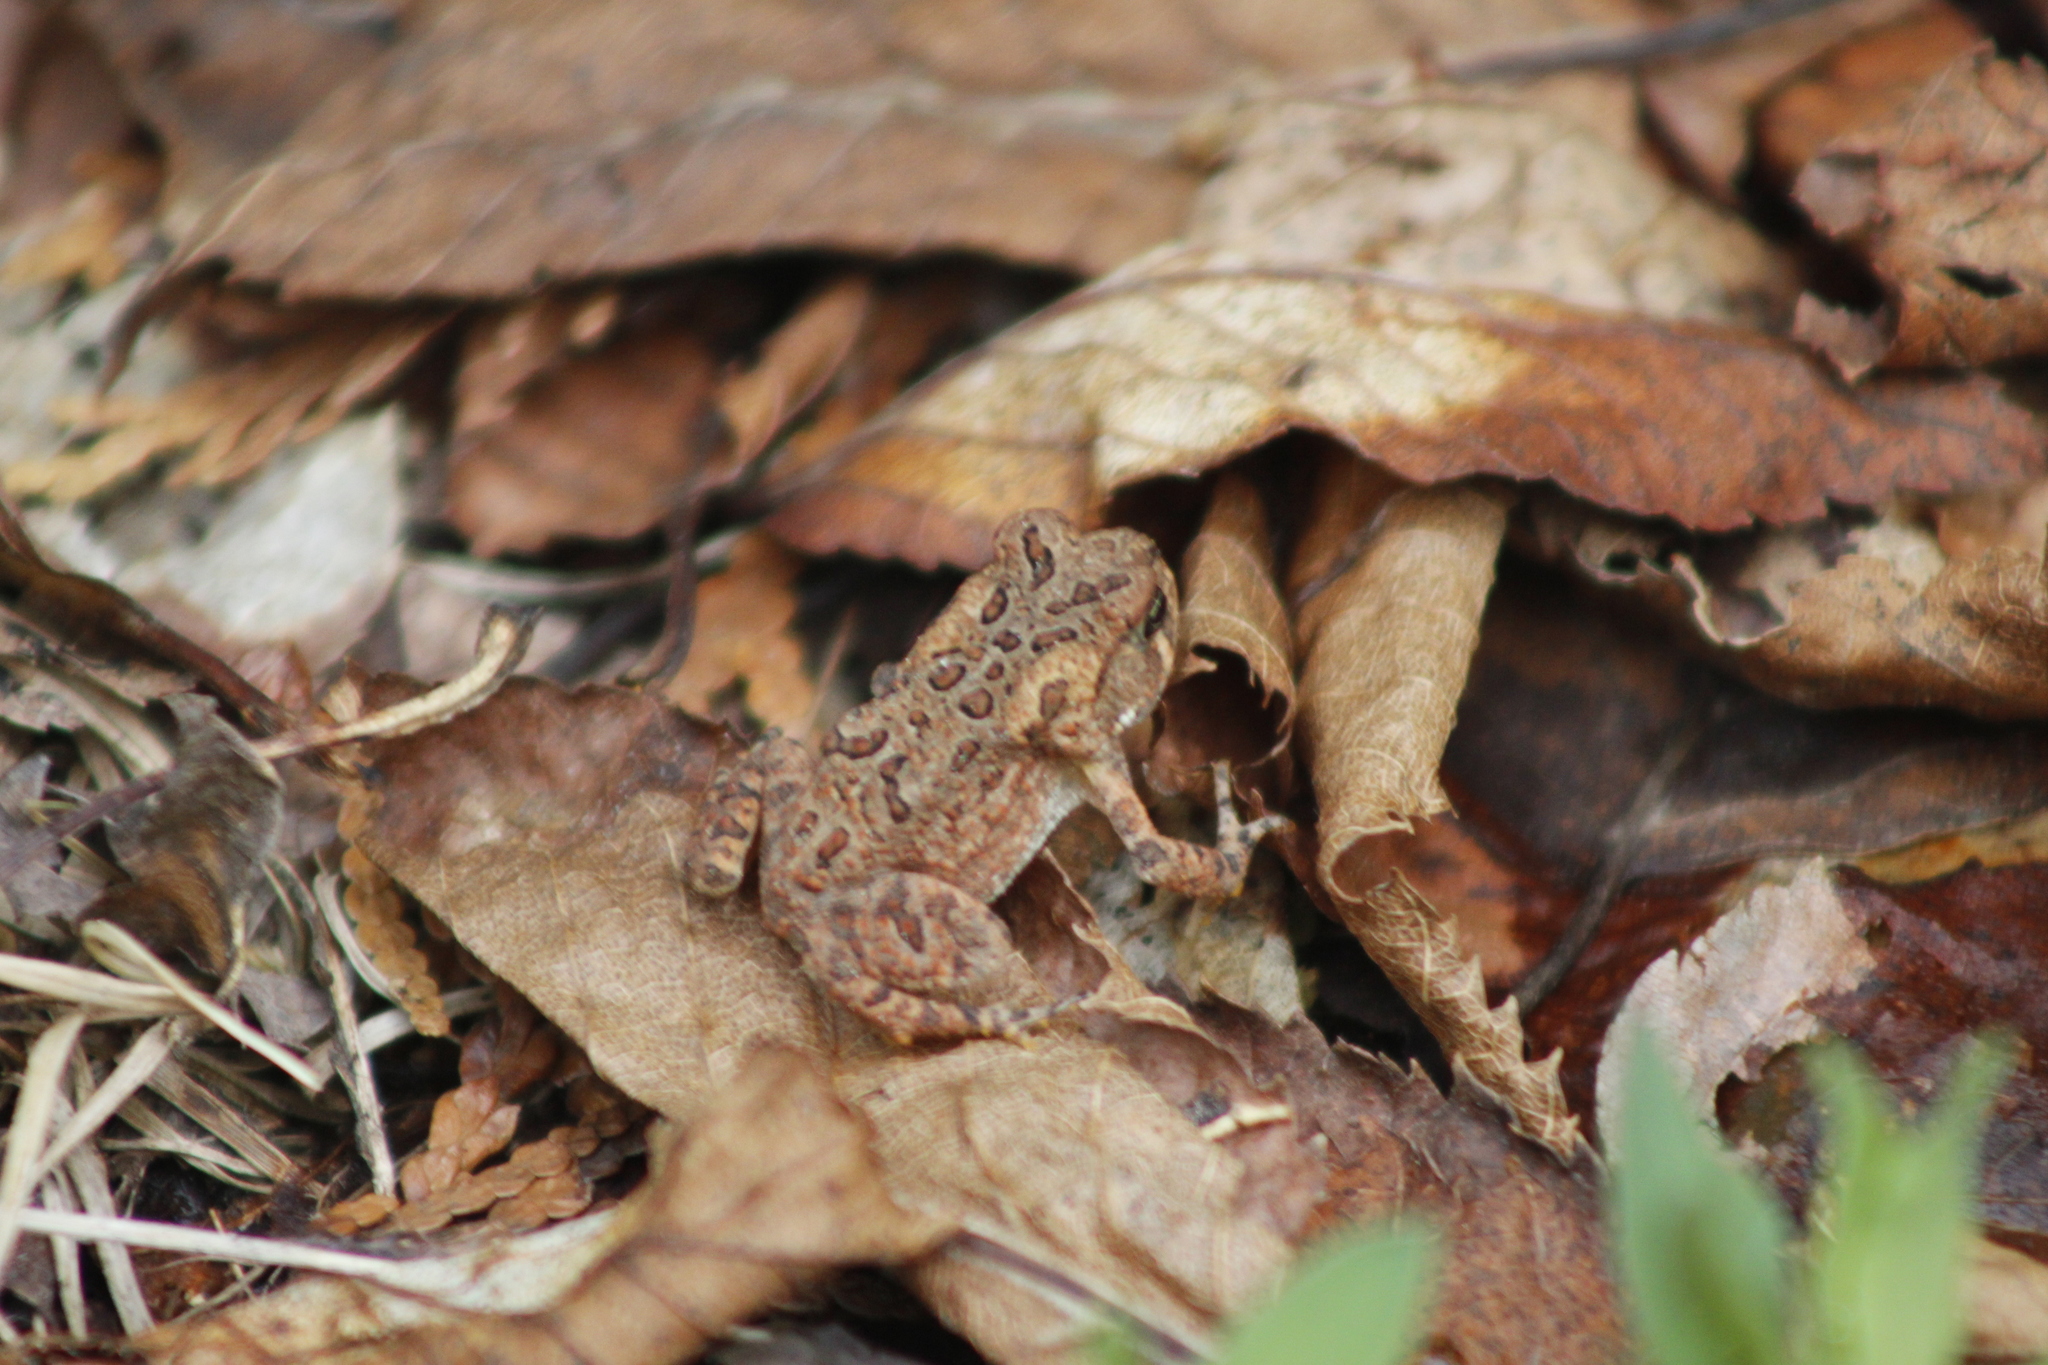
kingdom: Animalia
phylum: Chordata
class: Amphibia
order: Anura
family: Bufonidae
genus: Anaxyrus
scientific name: Anaxyrus americanus
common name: American toad
